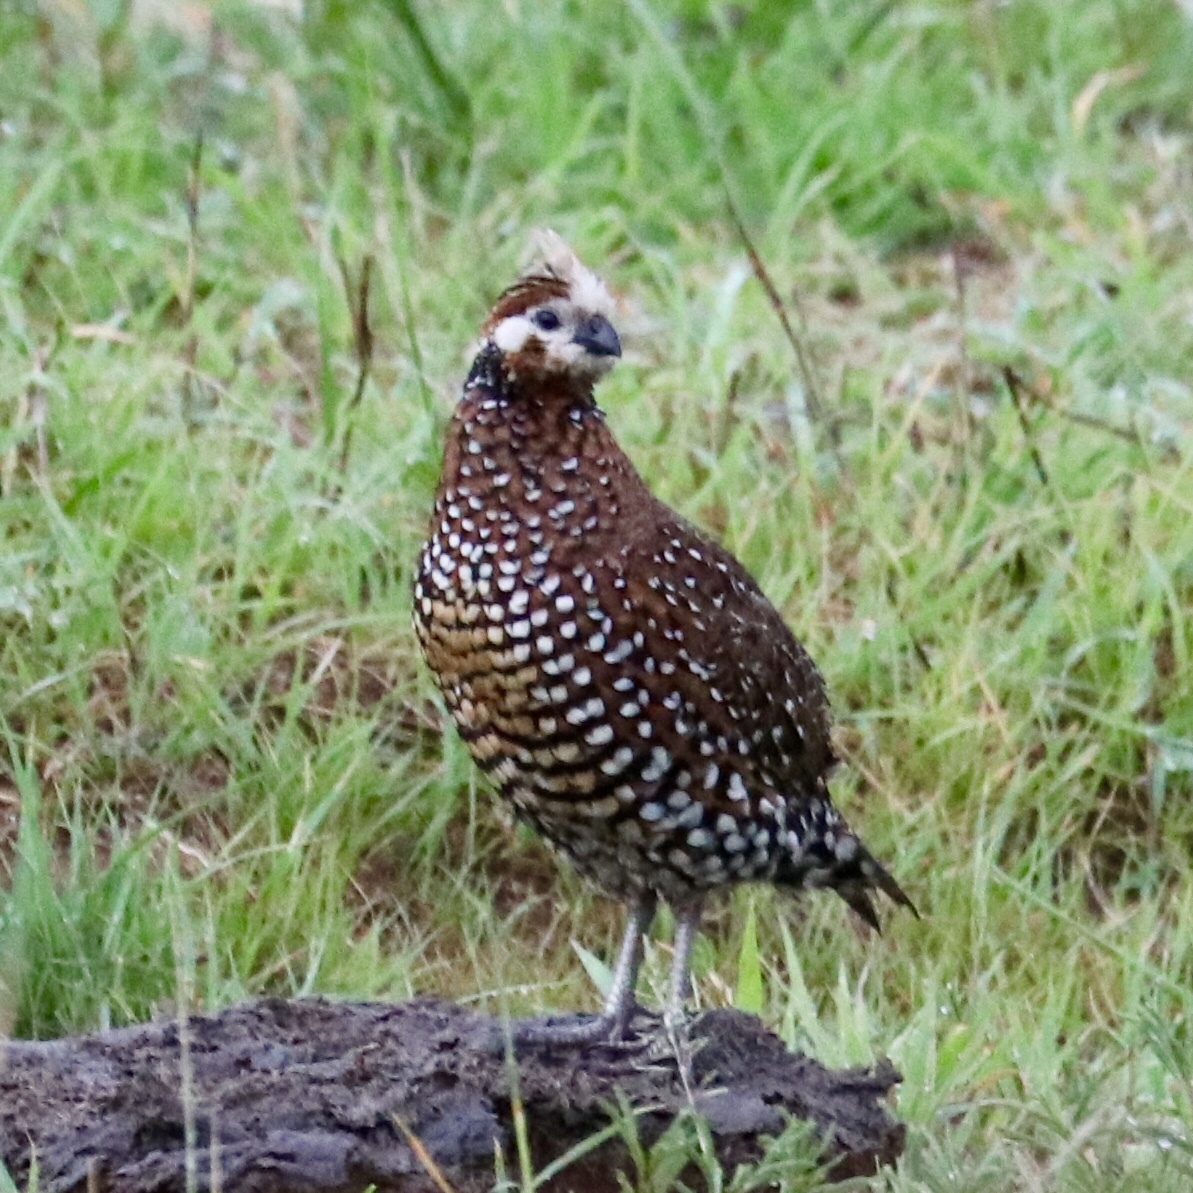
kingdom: Animalia
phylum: Chordata
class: Aves
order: Galliformes
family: Odontophoridae
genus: Colinus
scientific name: Colinus cristatus
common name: Crested bobwhite
